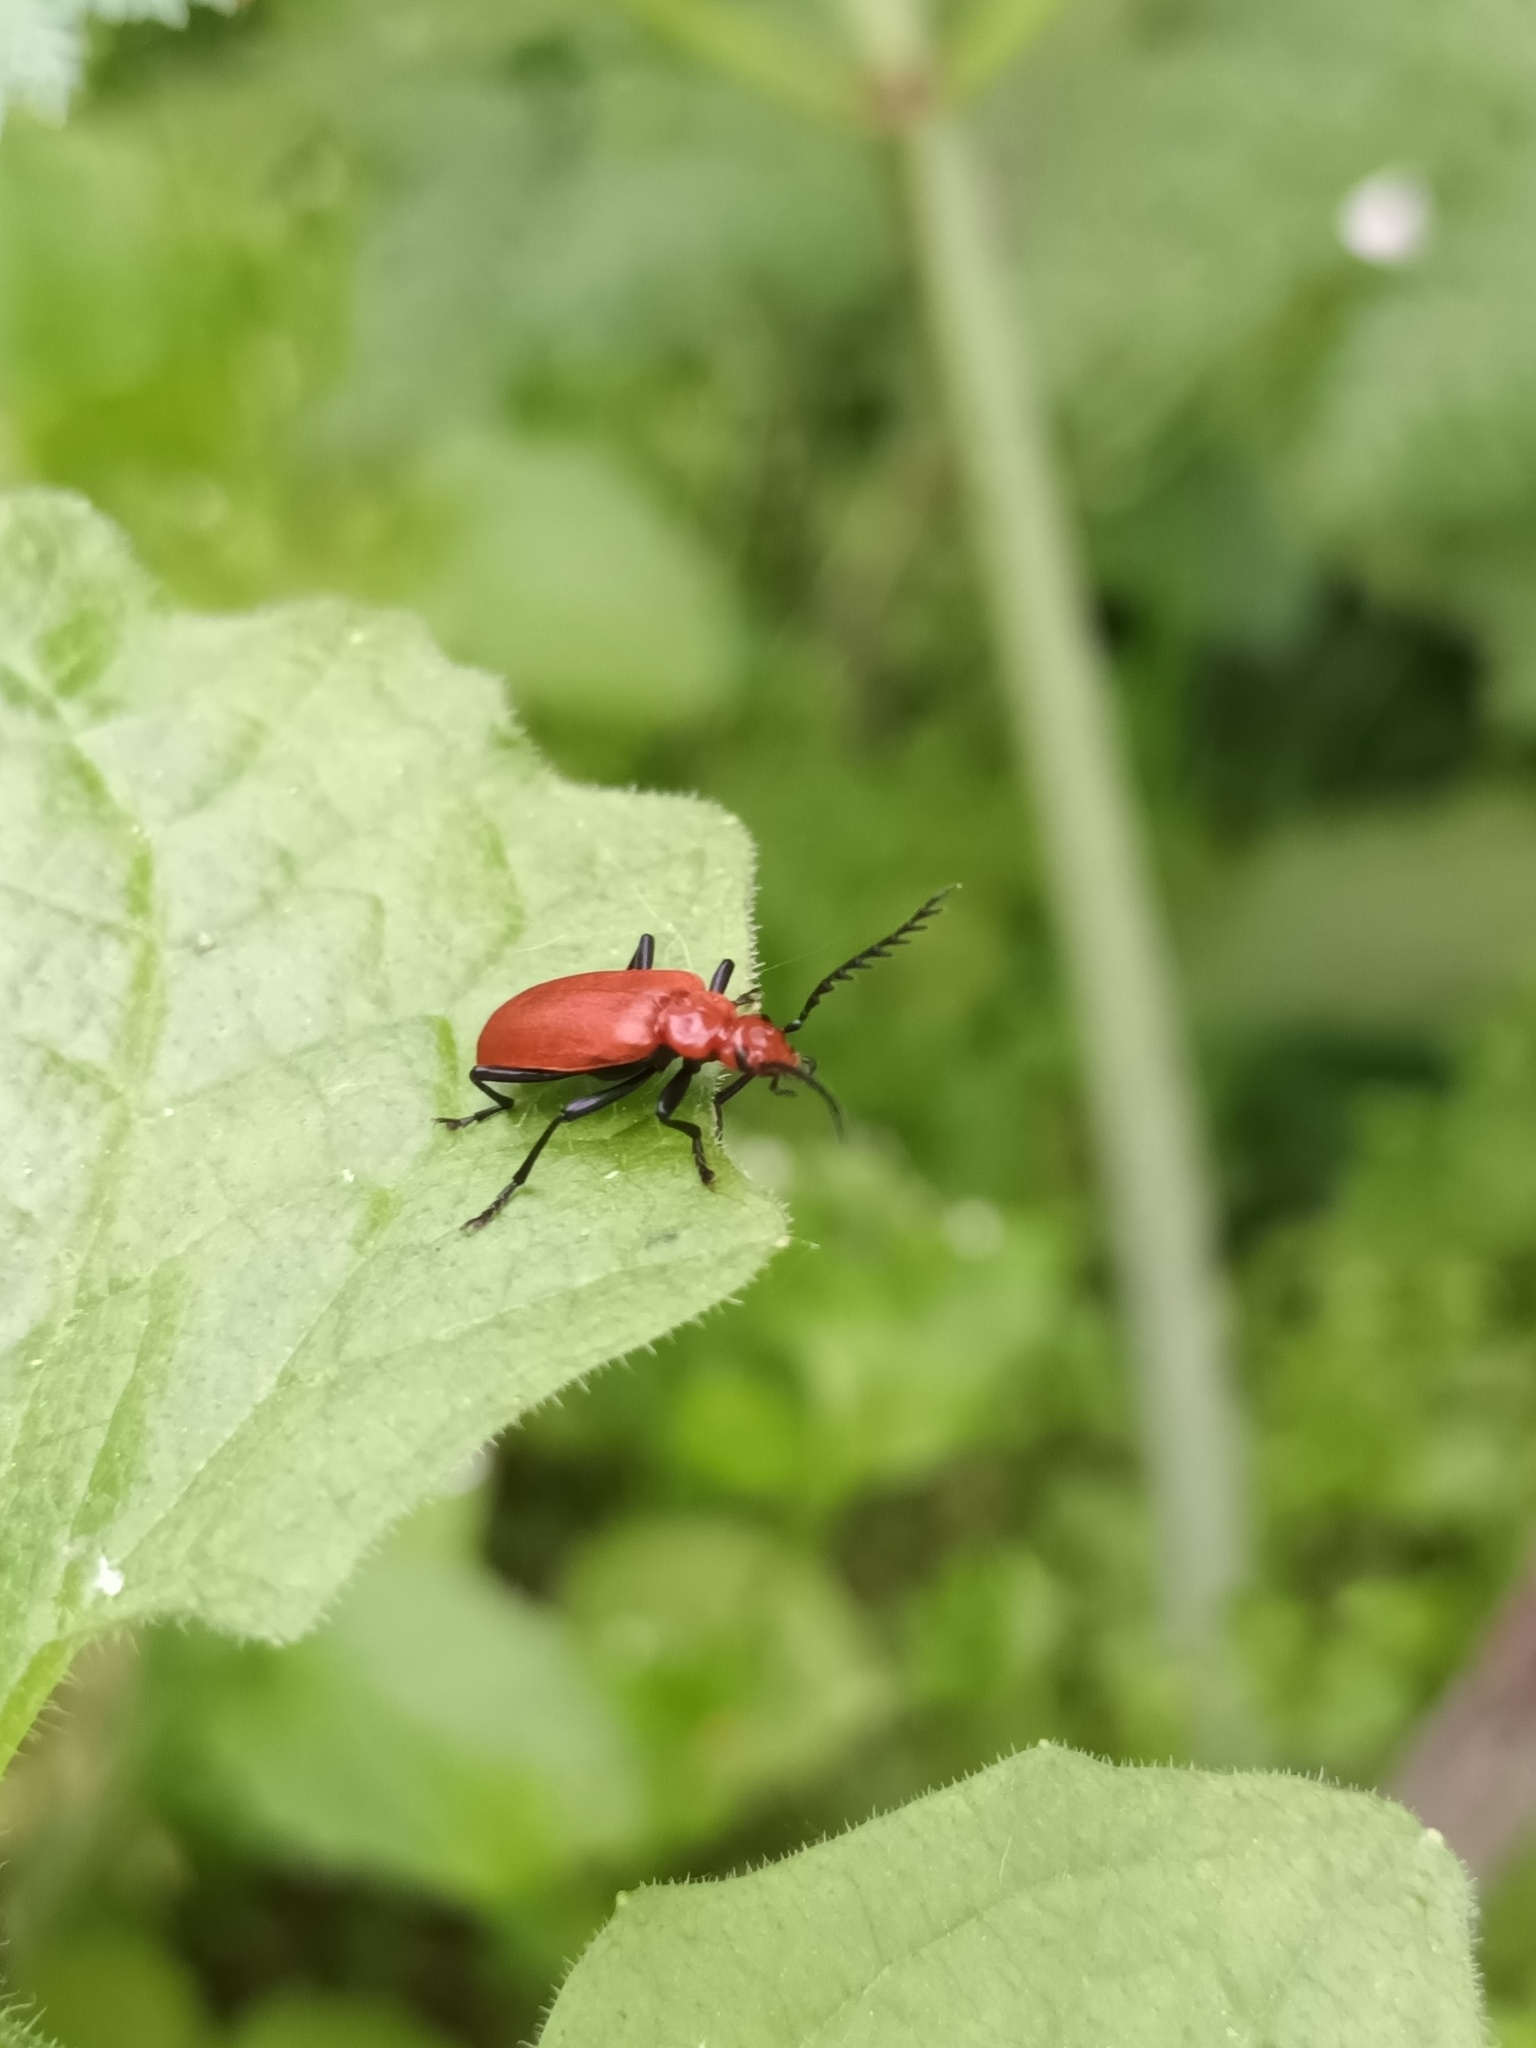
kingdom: Animalia
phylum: Arthropoda
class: Insecta
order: Coleoptera
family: Pyrochroidae
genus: Pyrochroa
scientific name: Pyrochroa serraticornis
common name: Red-headed cardinal beetle
